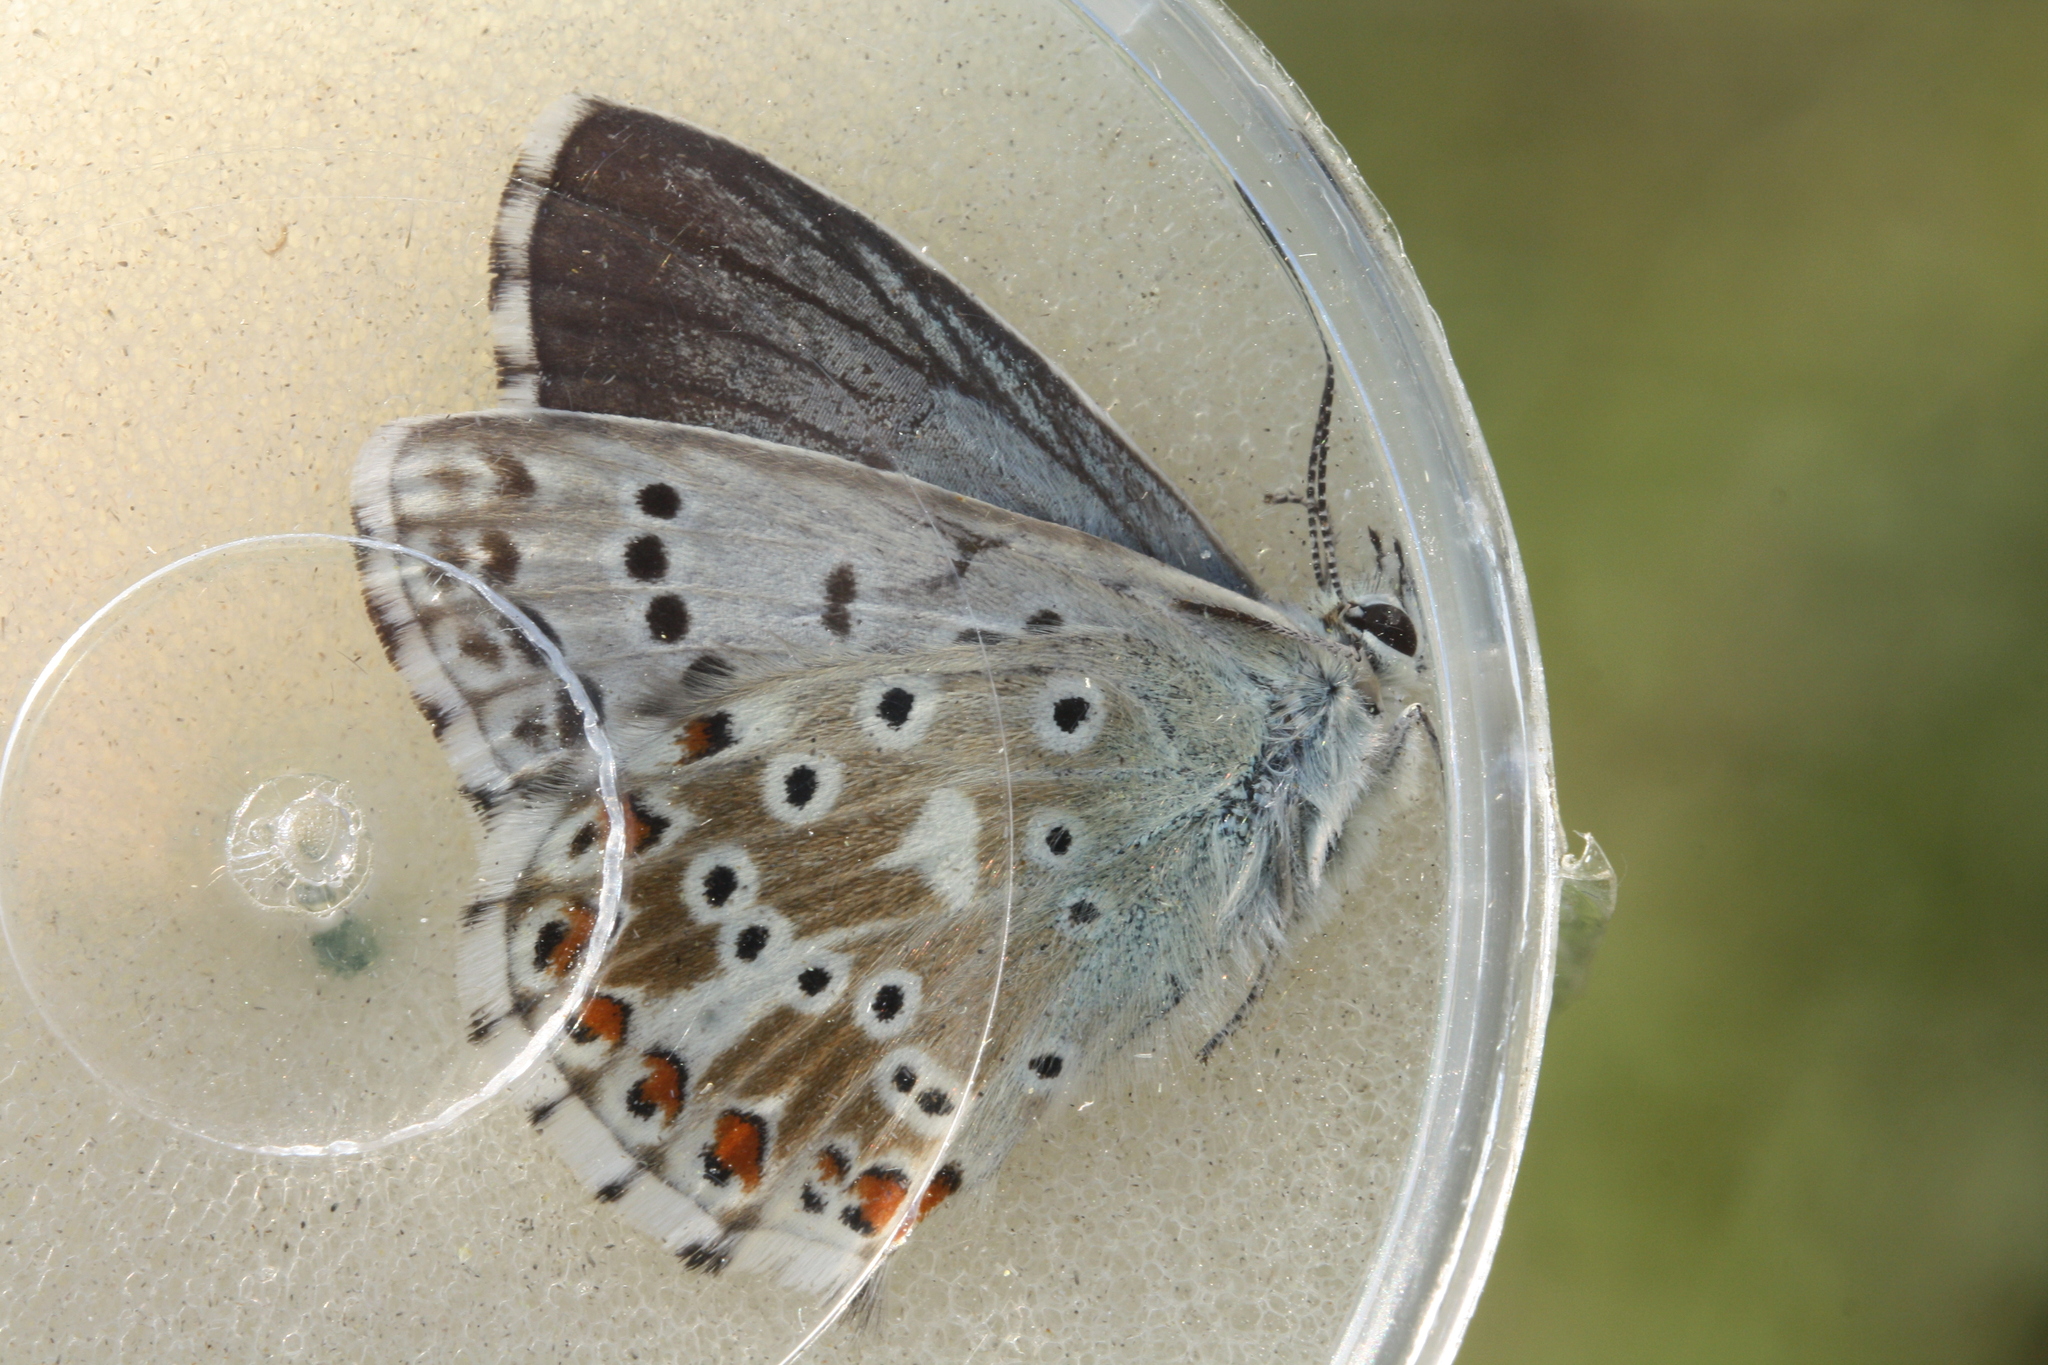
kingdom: Animalia
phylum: Arthropoda
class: Insecta
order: Lepidoptera
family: Lycaenidae
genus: Lysandra
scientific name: Lysandra coridon
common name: Chalkhill blue
